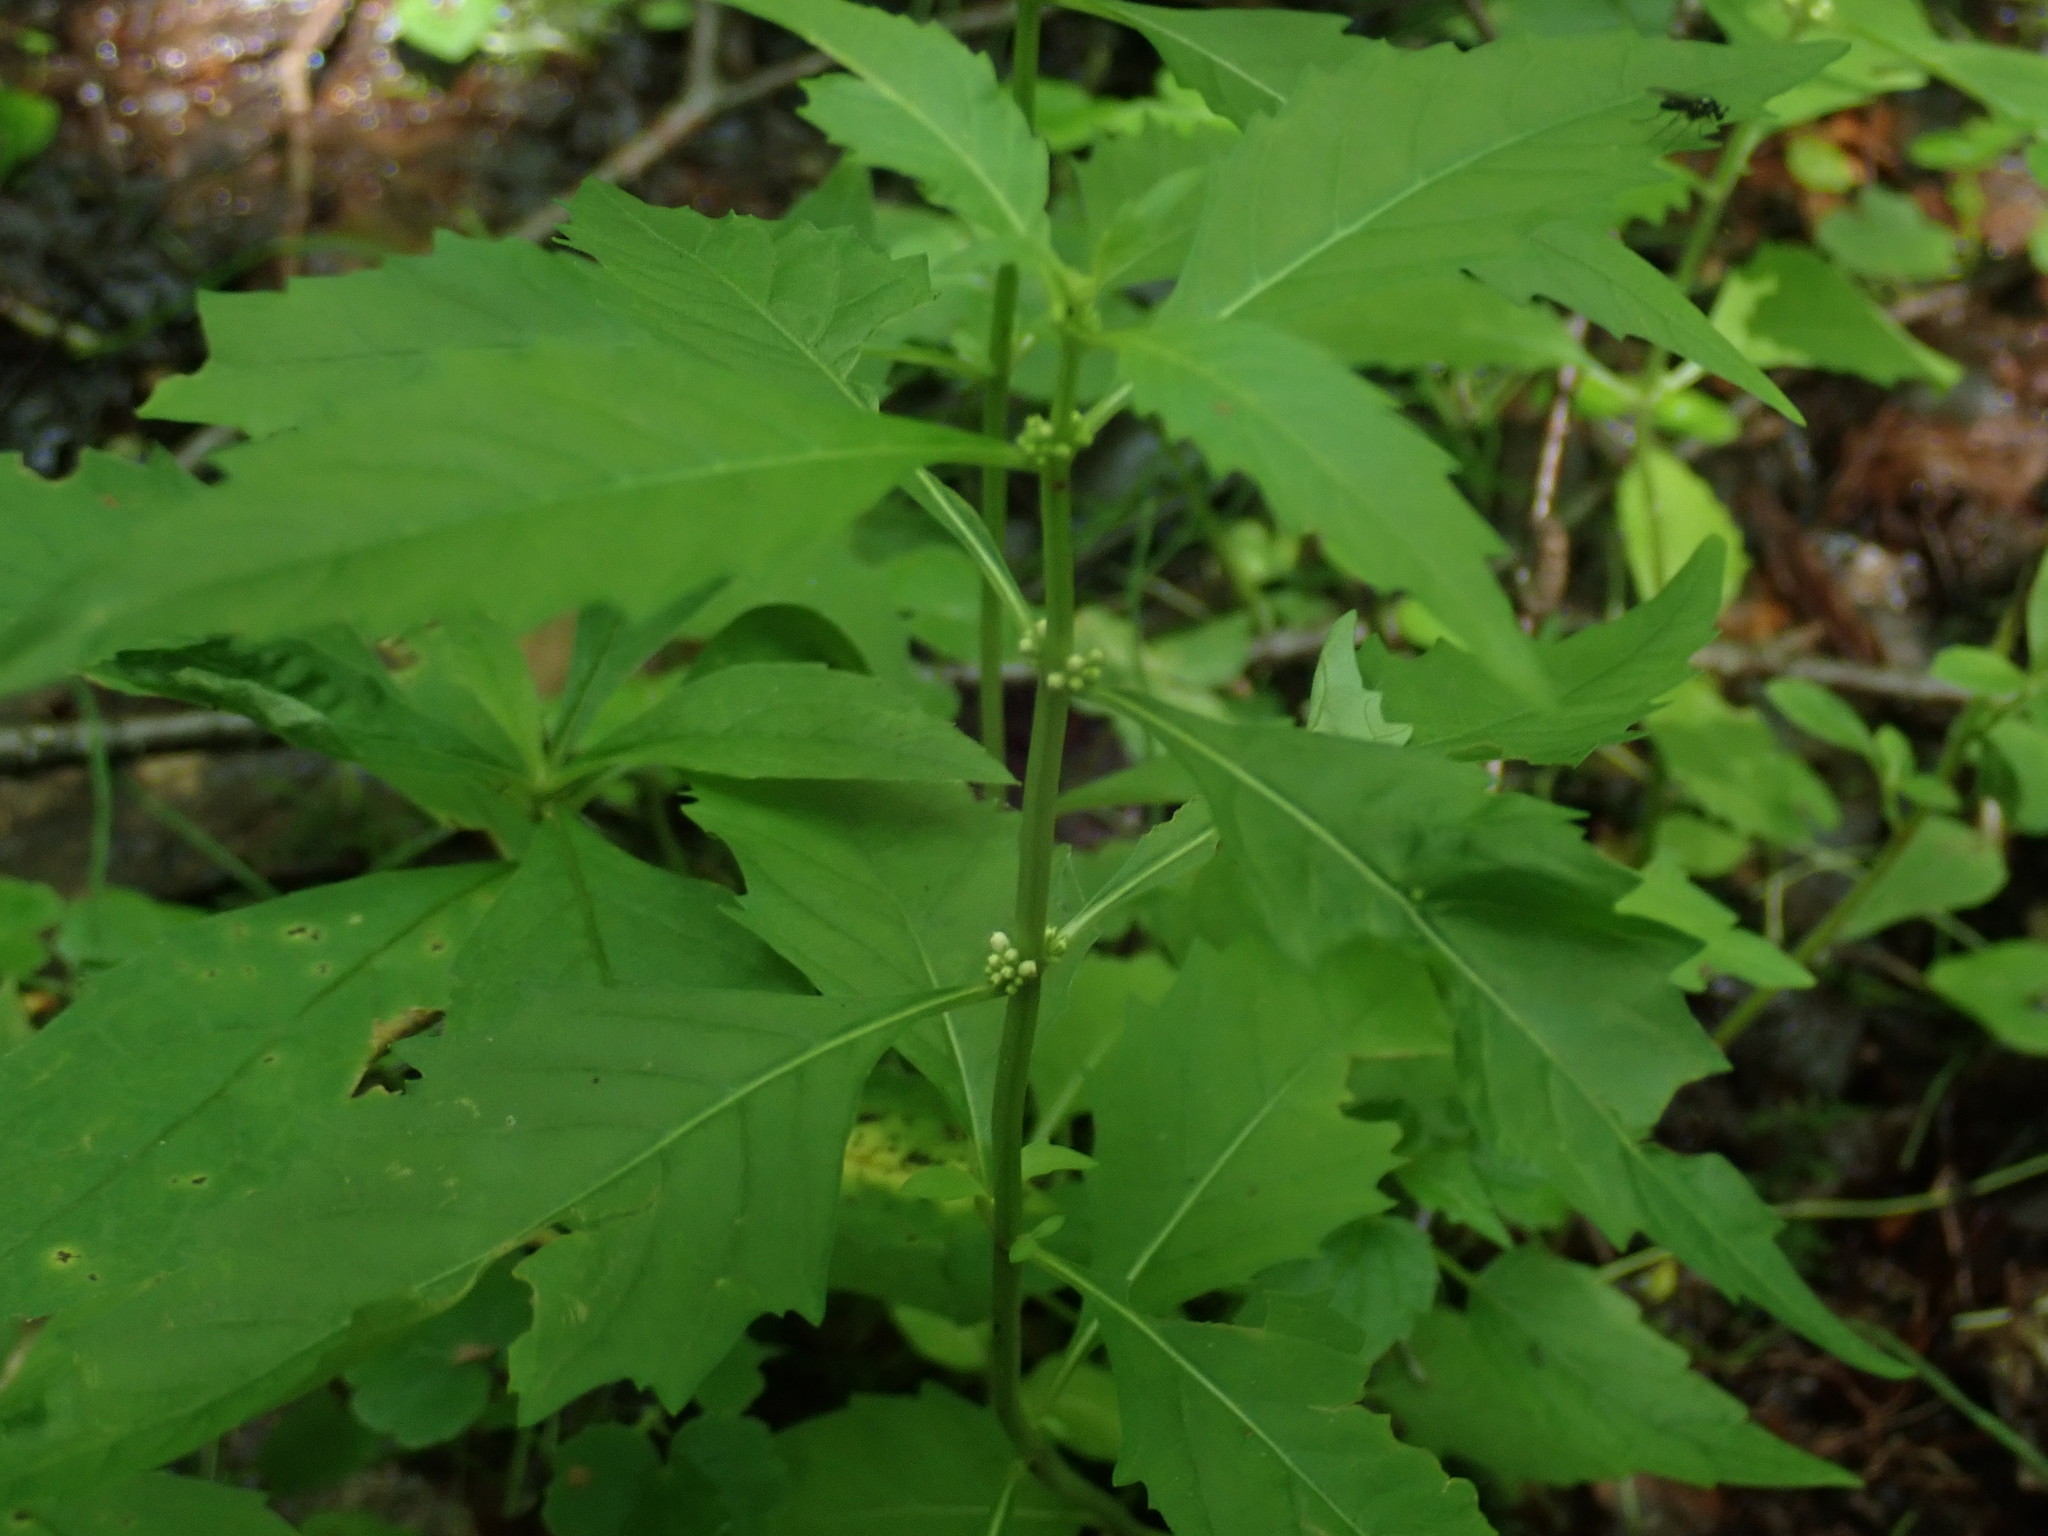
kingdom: Plantae
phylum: Tracheophyta
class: Magnoliopsida
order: Lamiales
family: Lamiaceae
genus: Lycopus
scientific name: Lycopus uniflorus
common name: Northern bugleweed
